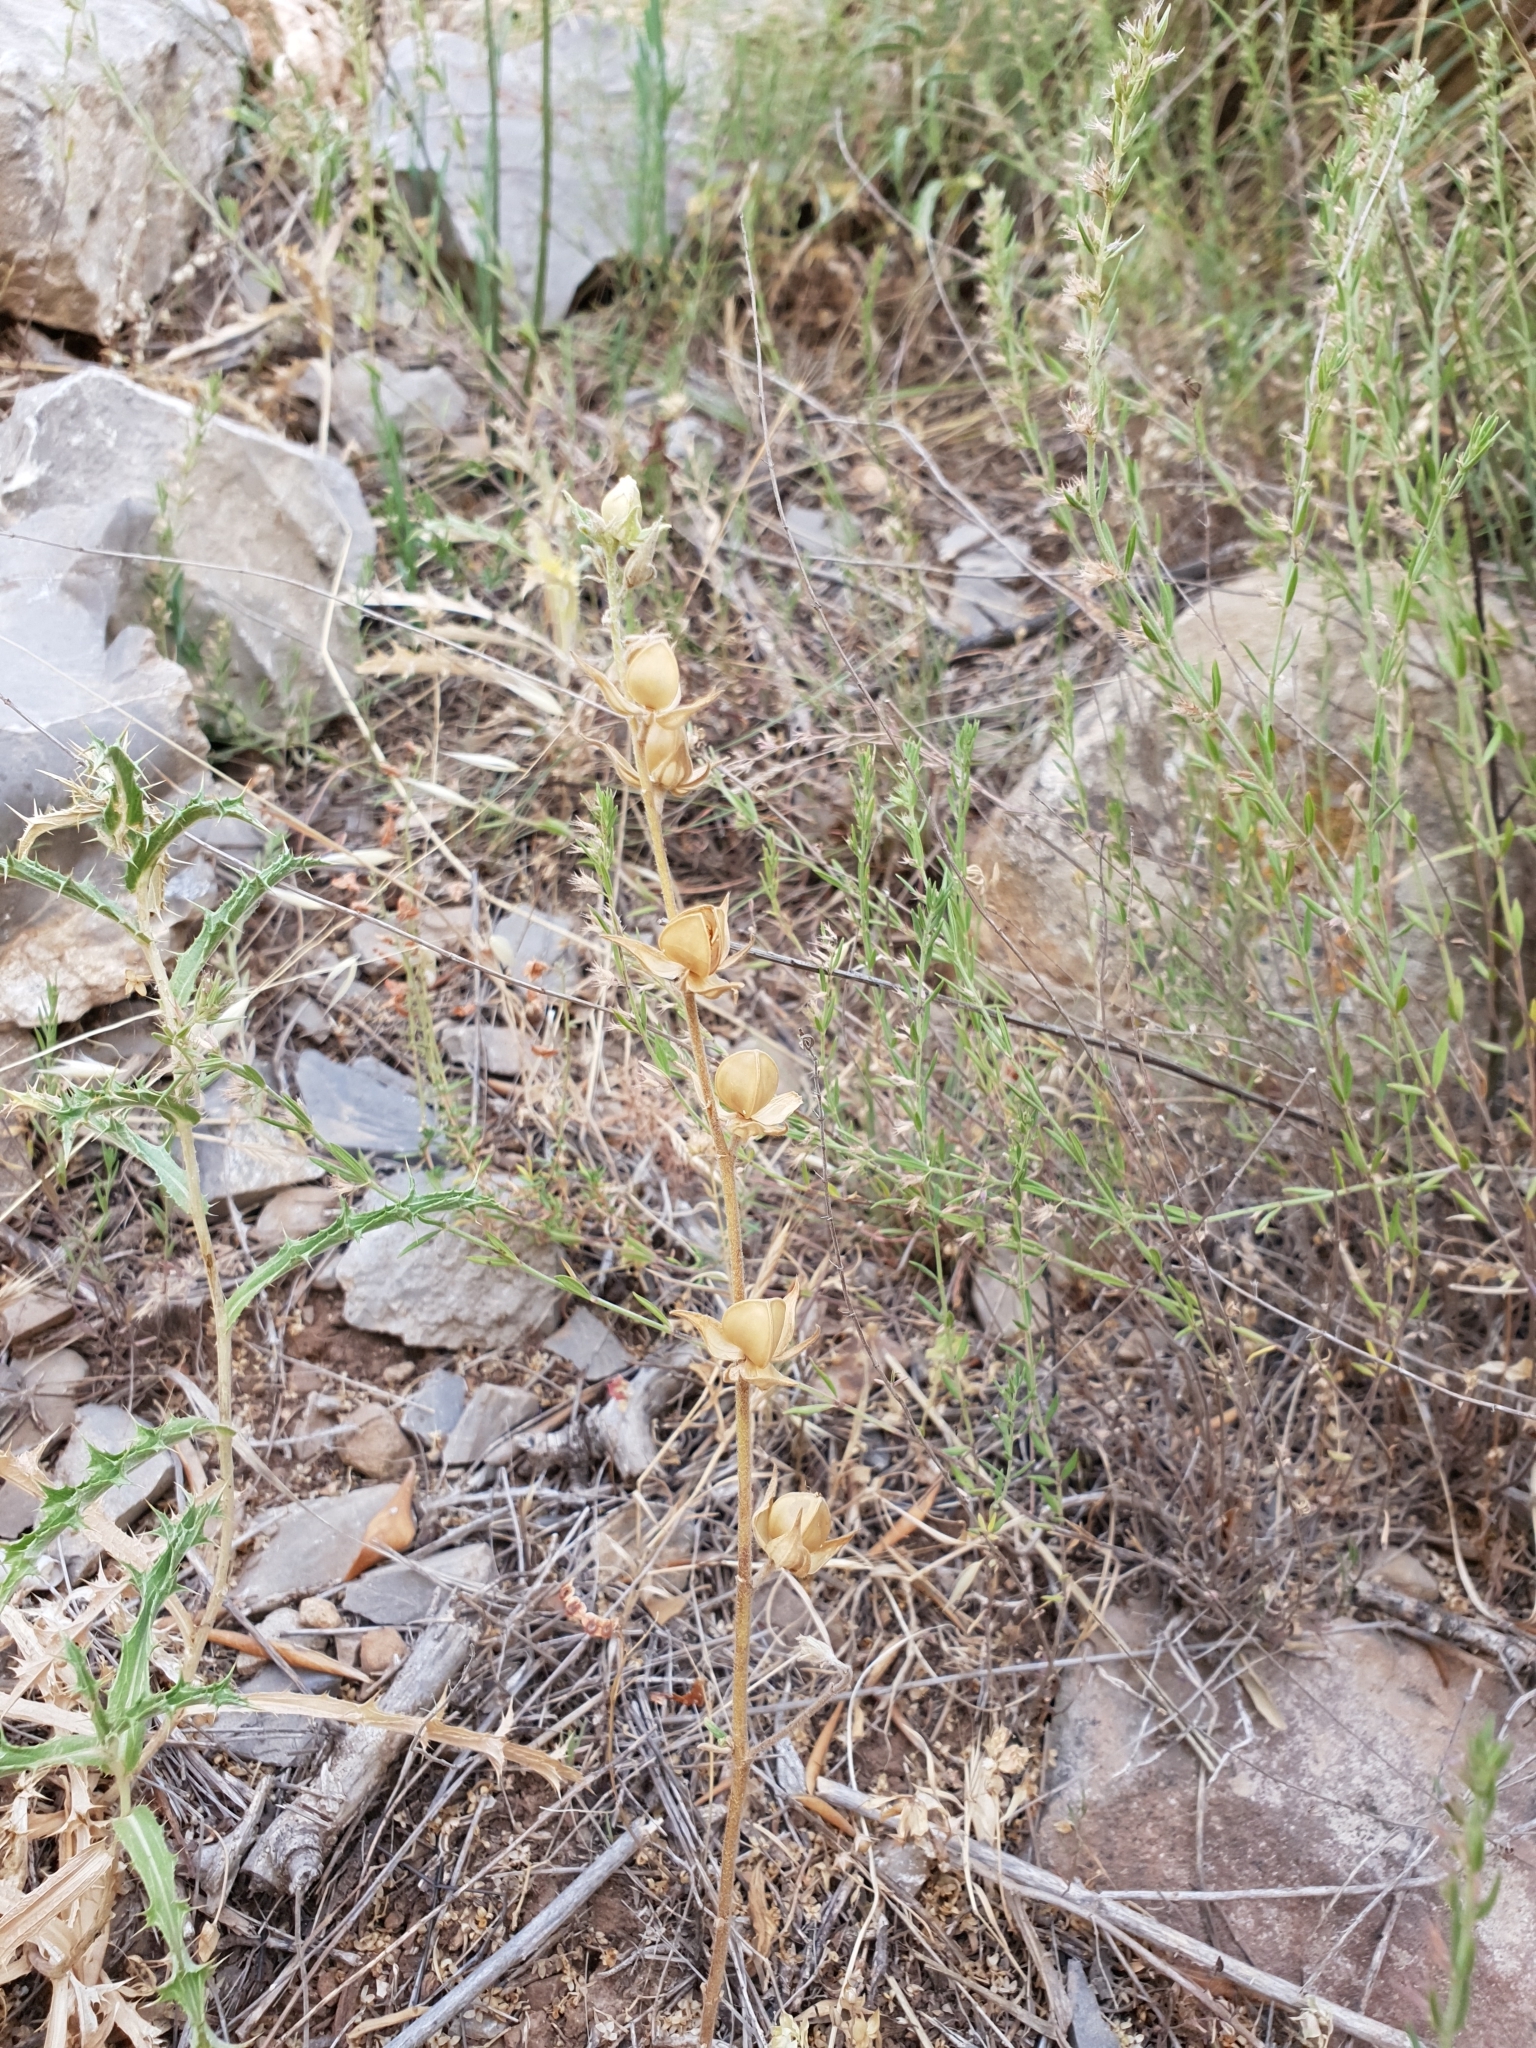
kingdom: Plantae
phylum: Tracheophyta
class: Magnoliopsida
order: Malvales
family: Cistaceae
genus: Helianthemum
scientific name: Helianthemum ledifolium
